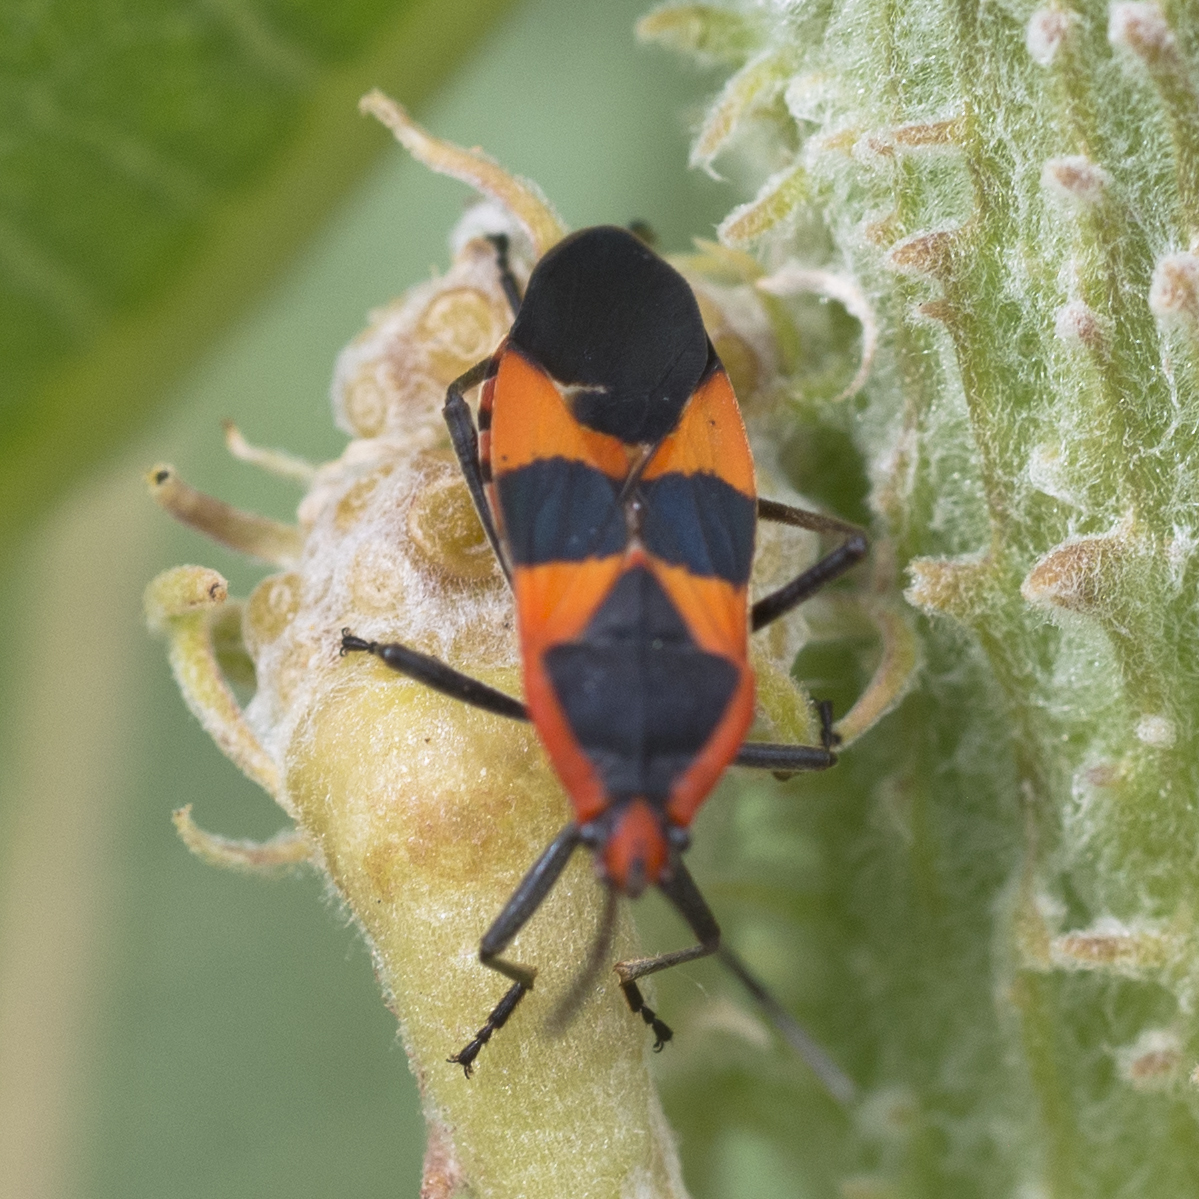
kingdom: Animalia
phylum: Arthropoda
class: Insecta
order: Hemiptera
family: Lygaeidae
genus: Oncopeltus
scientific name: Oncopeltus fasciatus
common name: Large milkweed bug
